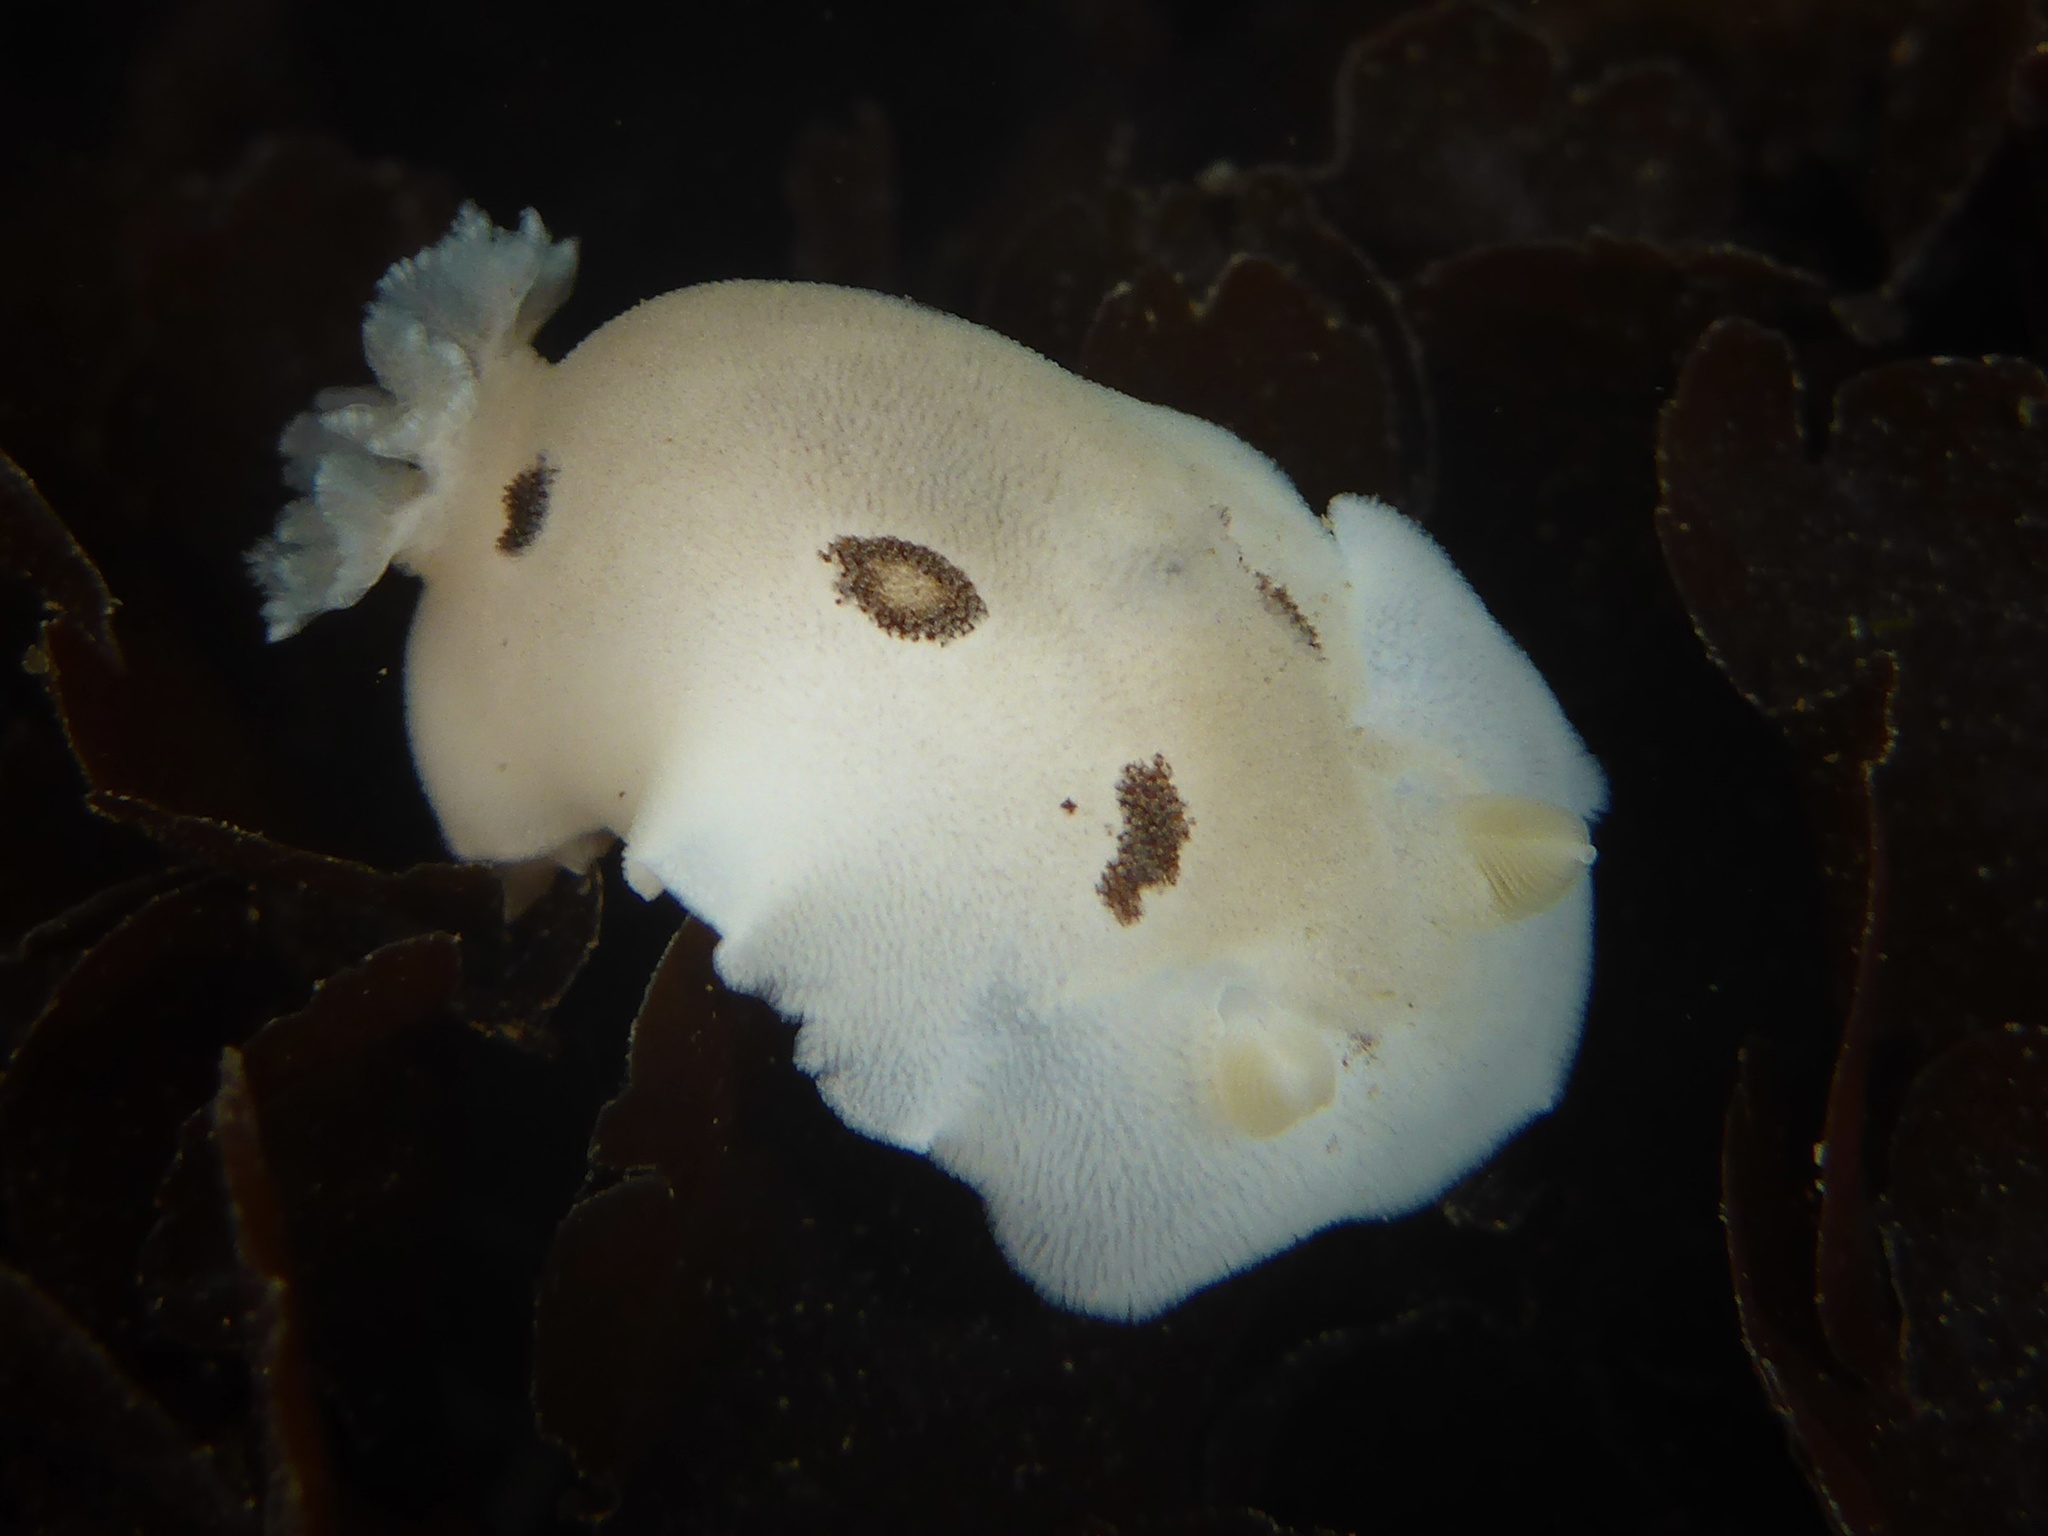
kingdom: Animalia
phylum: Mollusca
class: Gastropoda
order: Nudibranchia
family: Discodorididae
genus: Diaulula
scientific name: Diaulula sandiegensis
